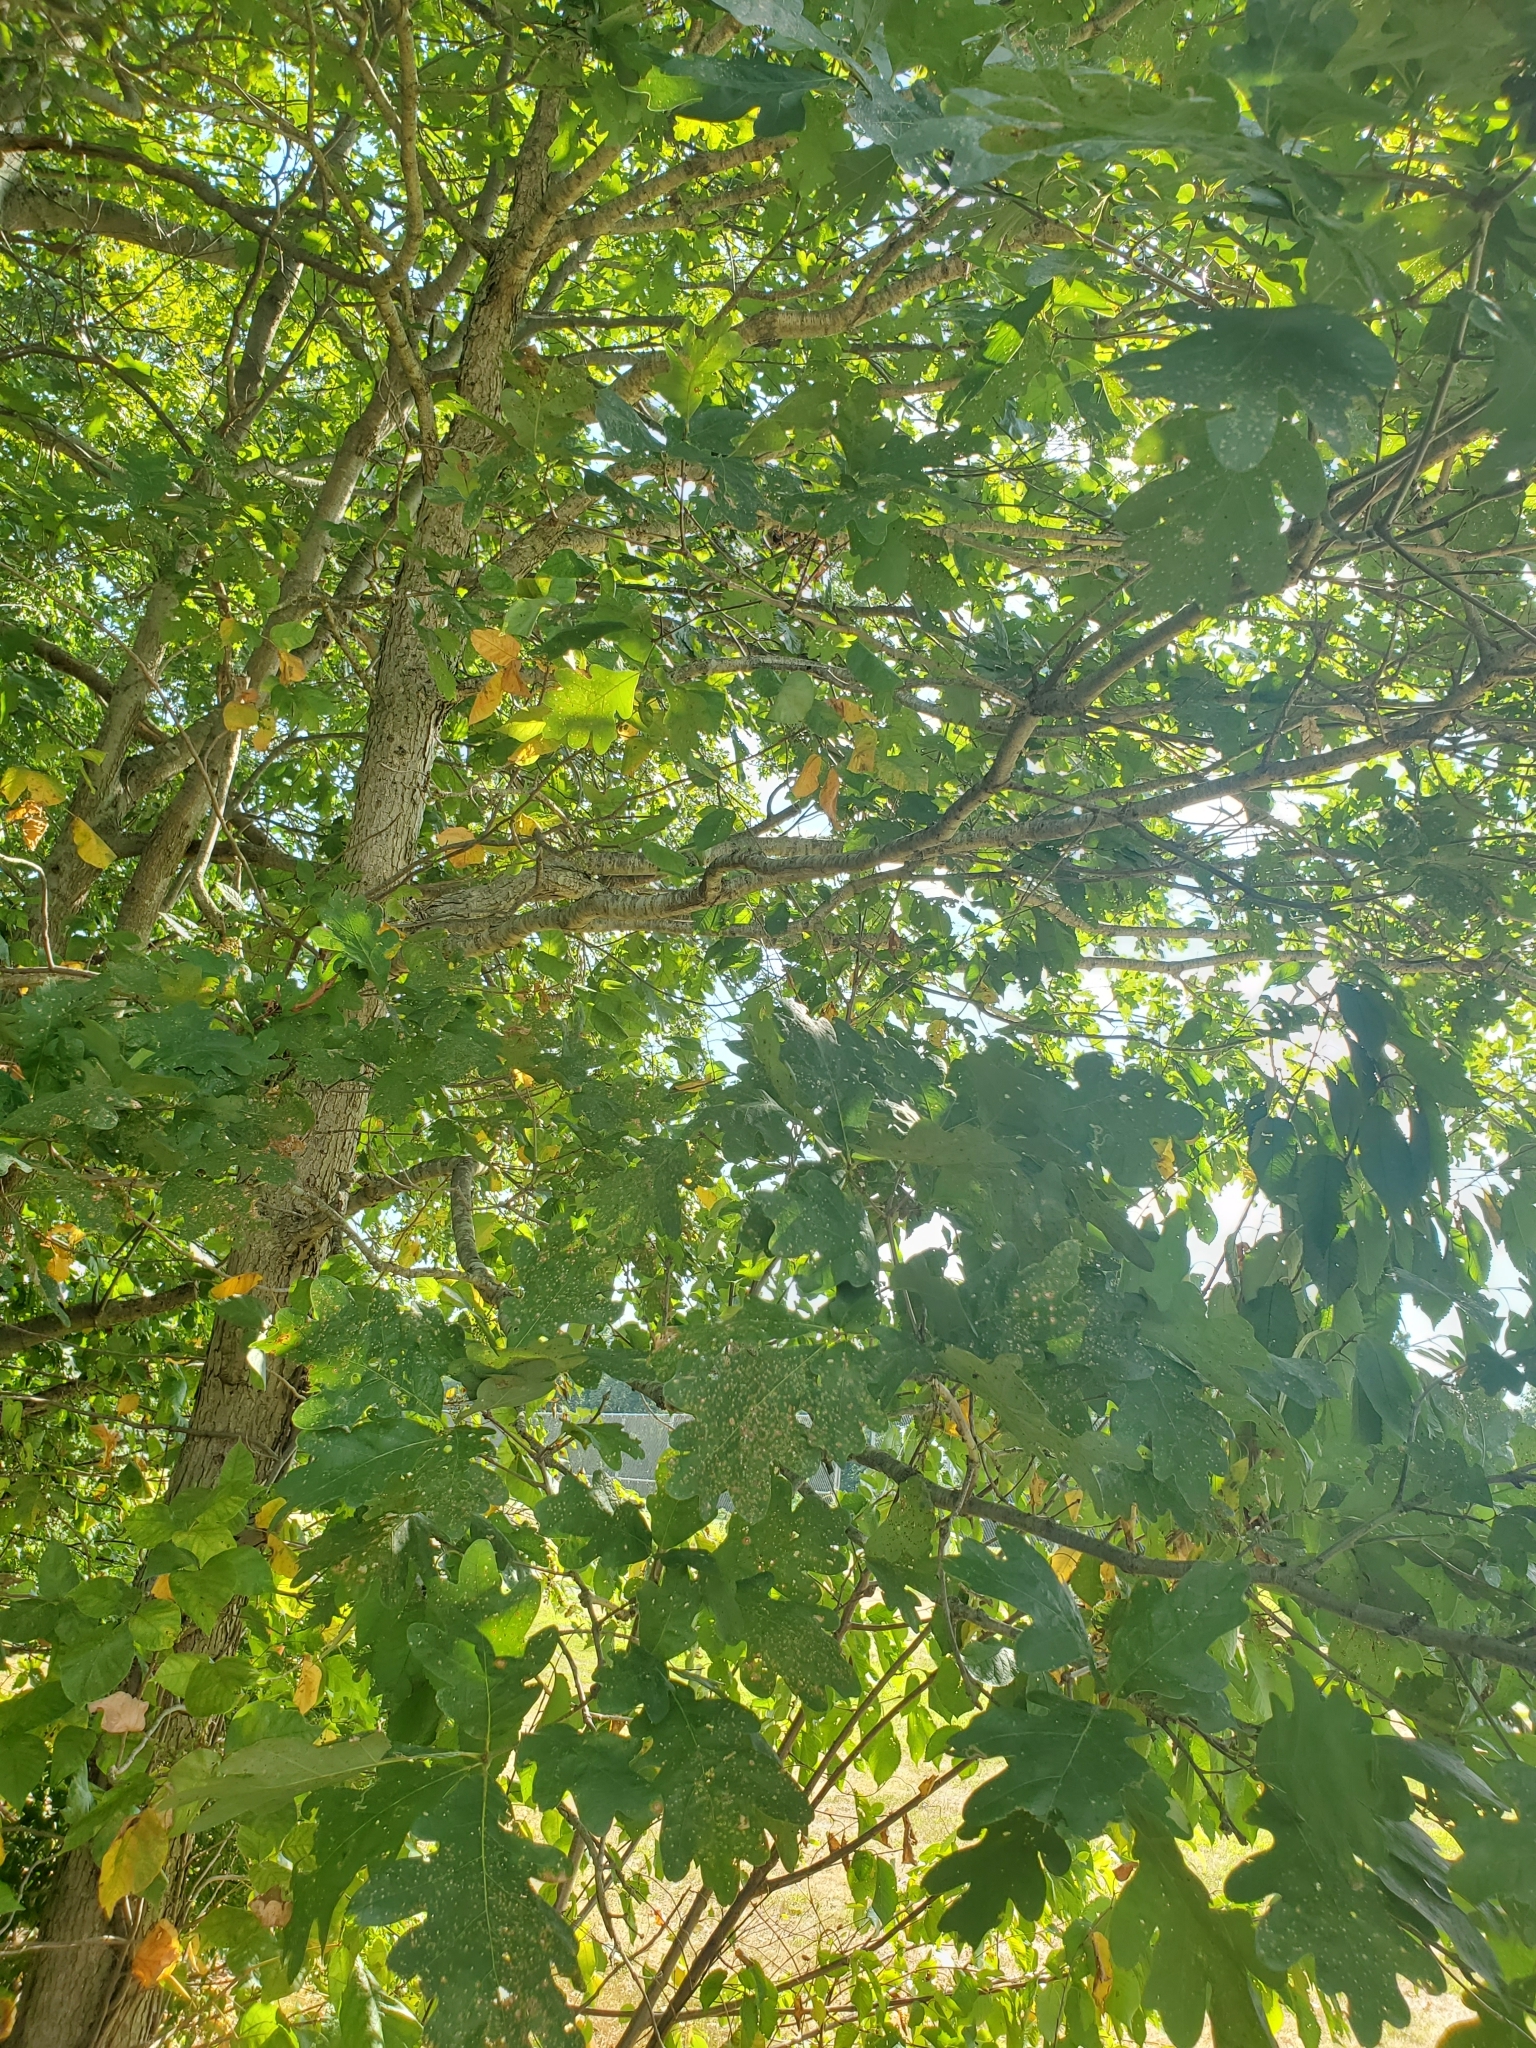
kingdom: Plantae
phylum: Tracheophyta
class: Magnoliopsida
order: Fagales
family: Fagaceae
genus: Quercus
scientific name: Quercus alba
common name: White oak
